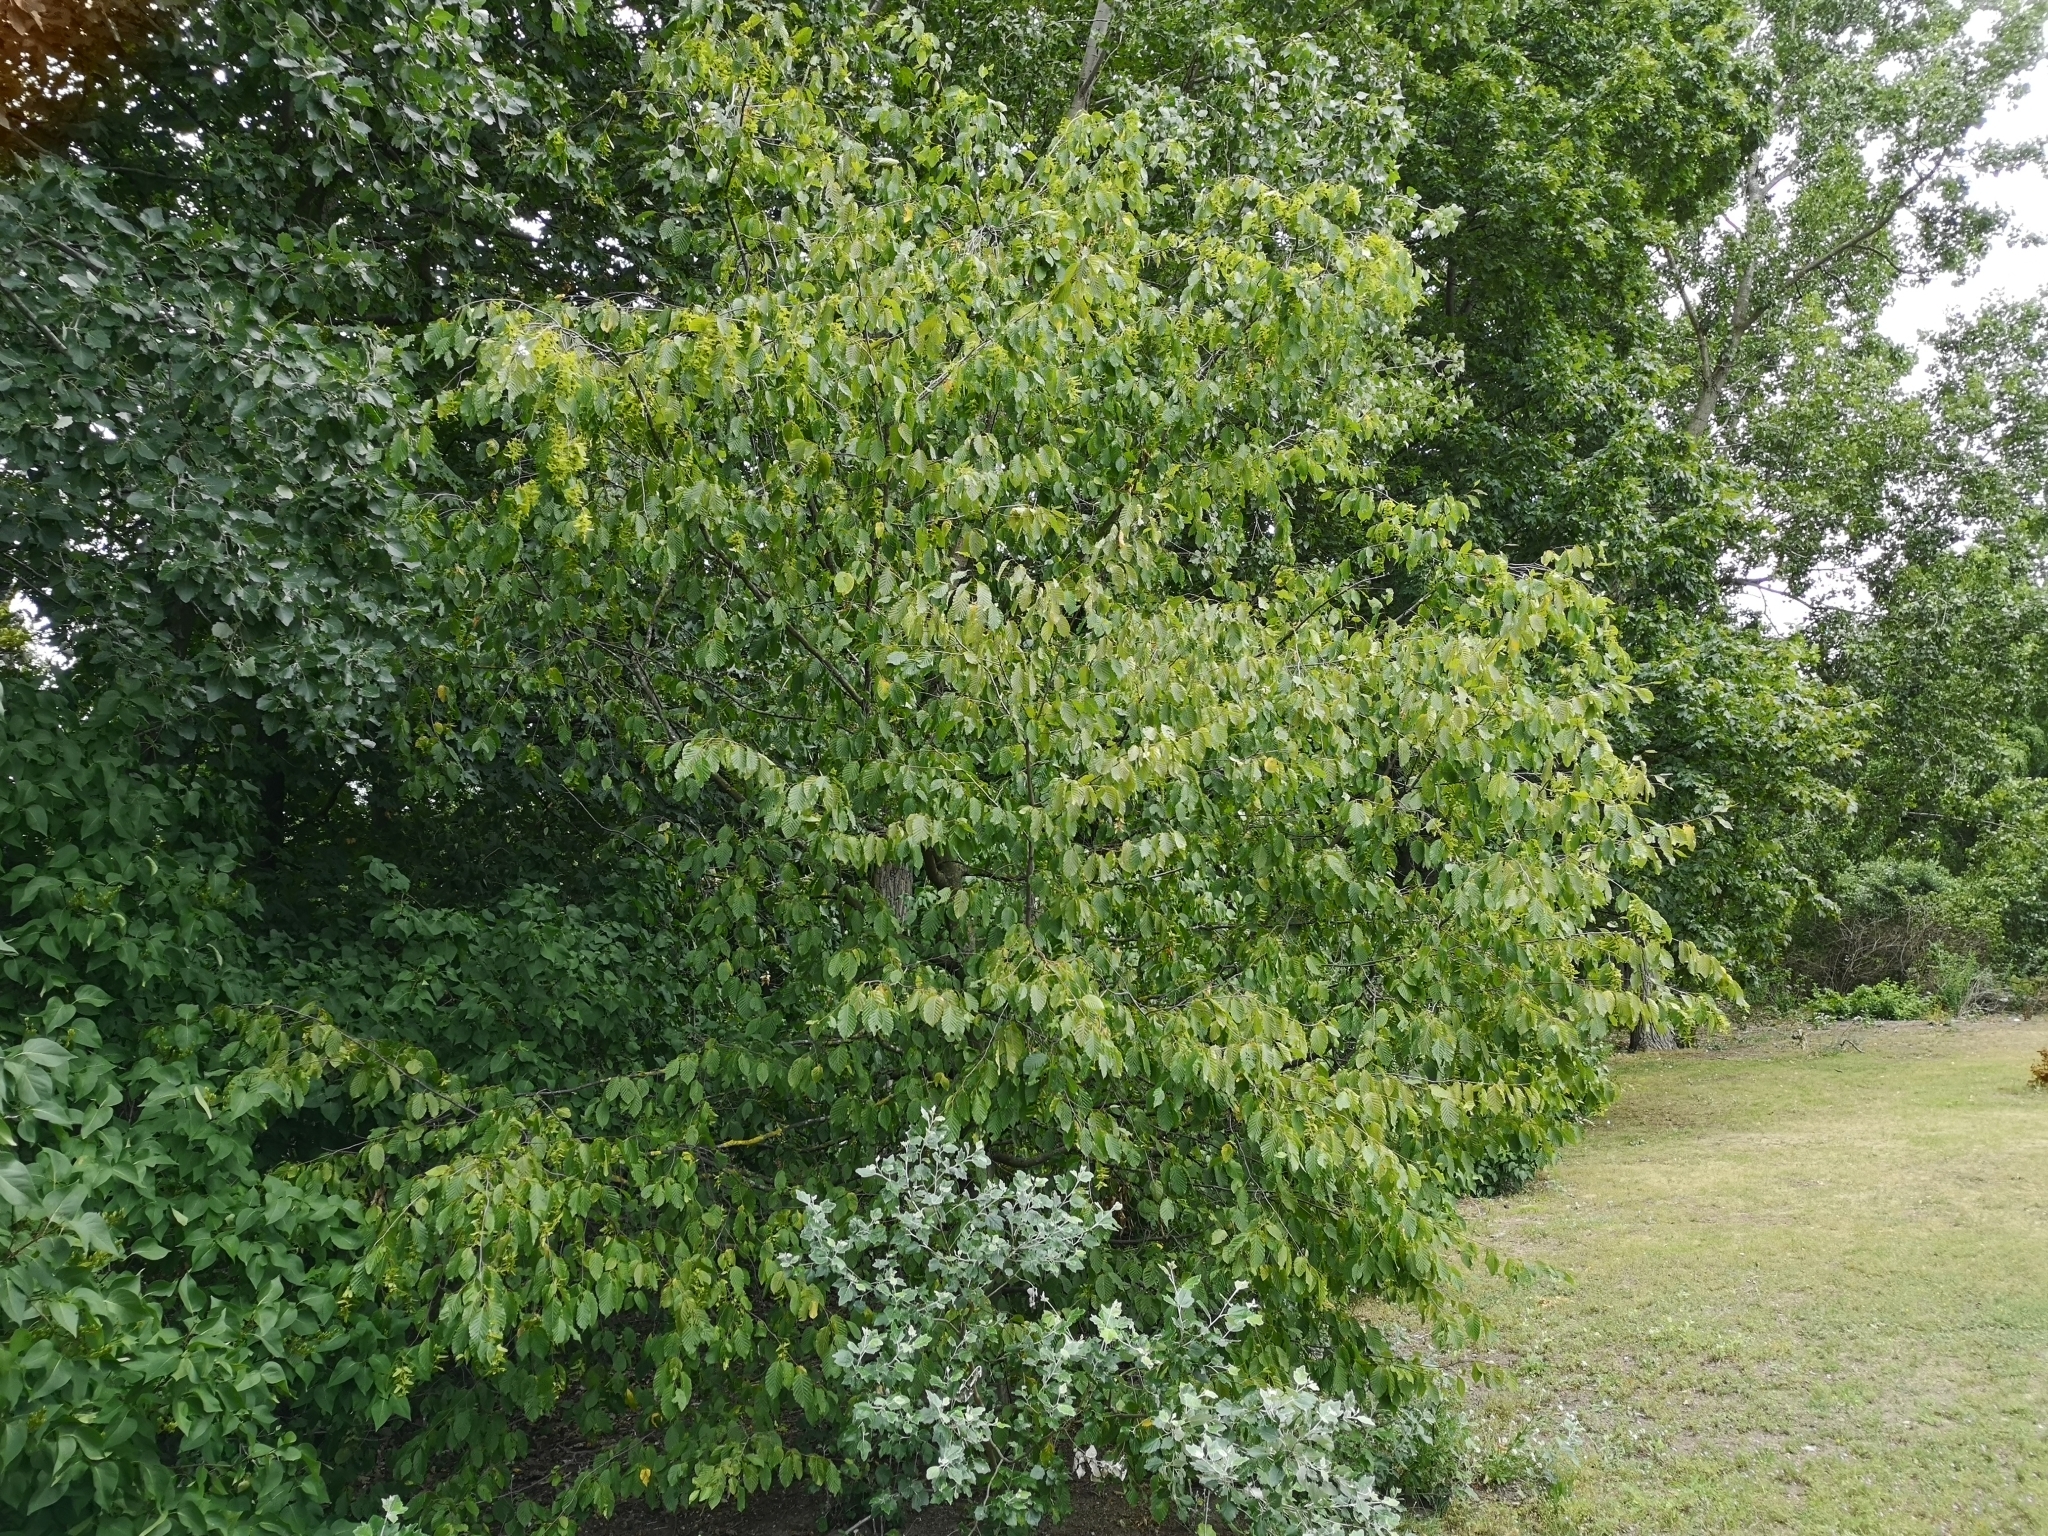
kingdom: Plantae
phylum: Tracheophyta
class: Magnoliopsida
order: Fagales
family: Betulaceae
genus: Carpinus
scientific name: Carpinus betulus
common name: Hornbeam
